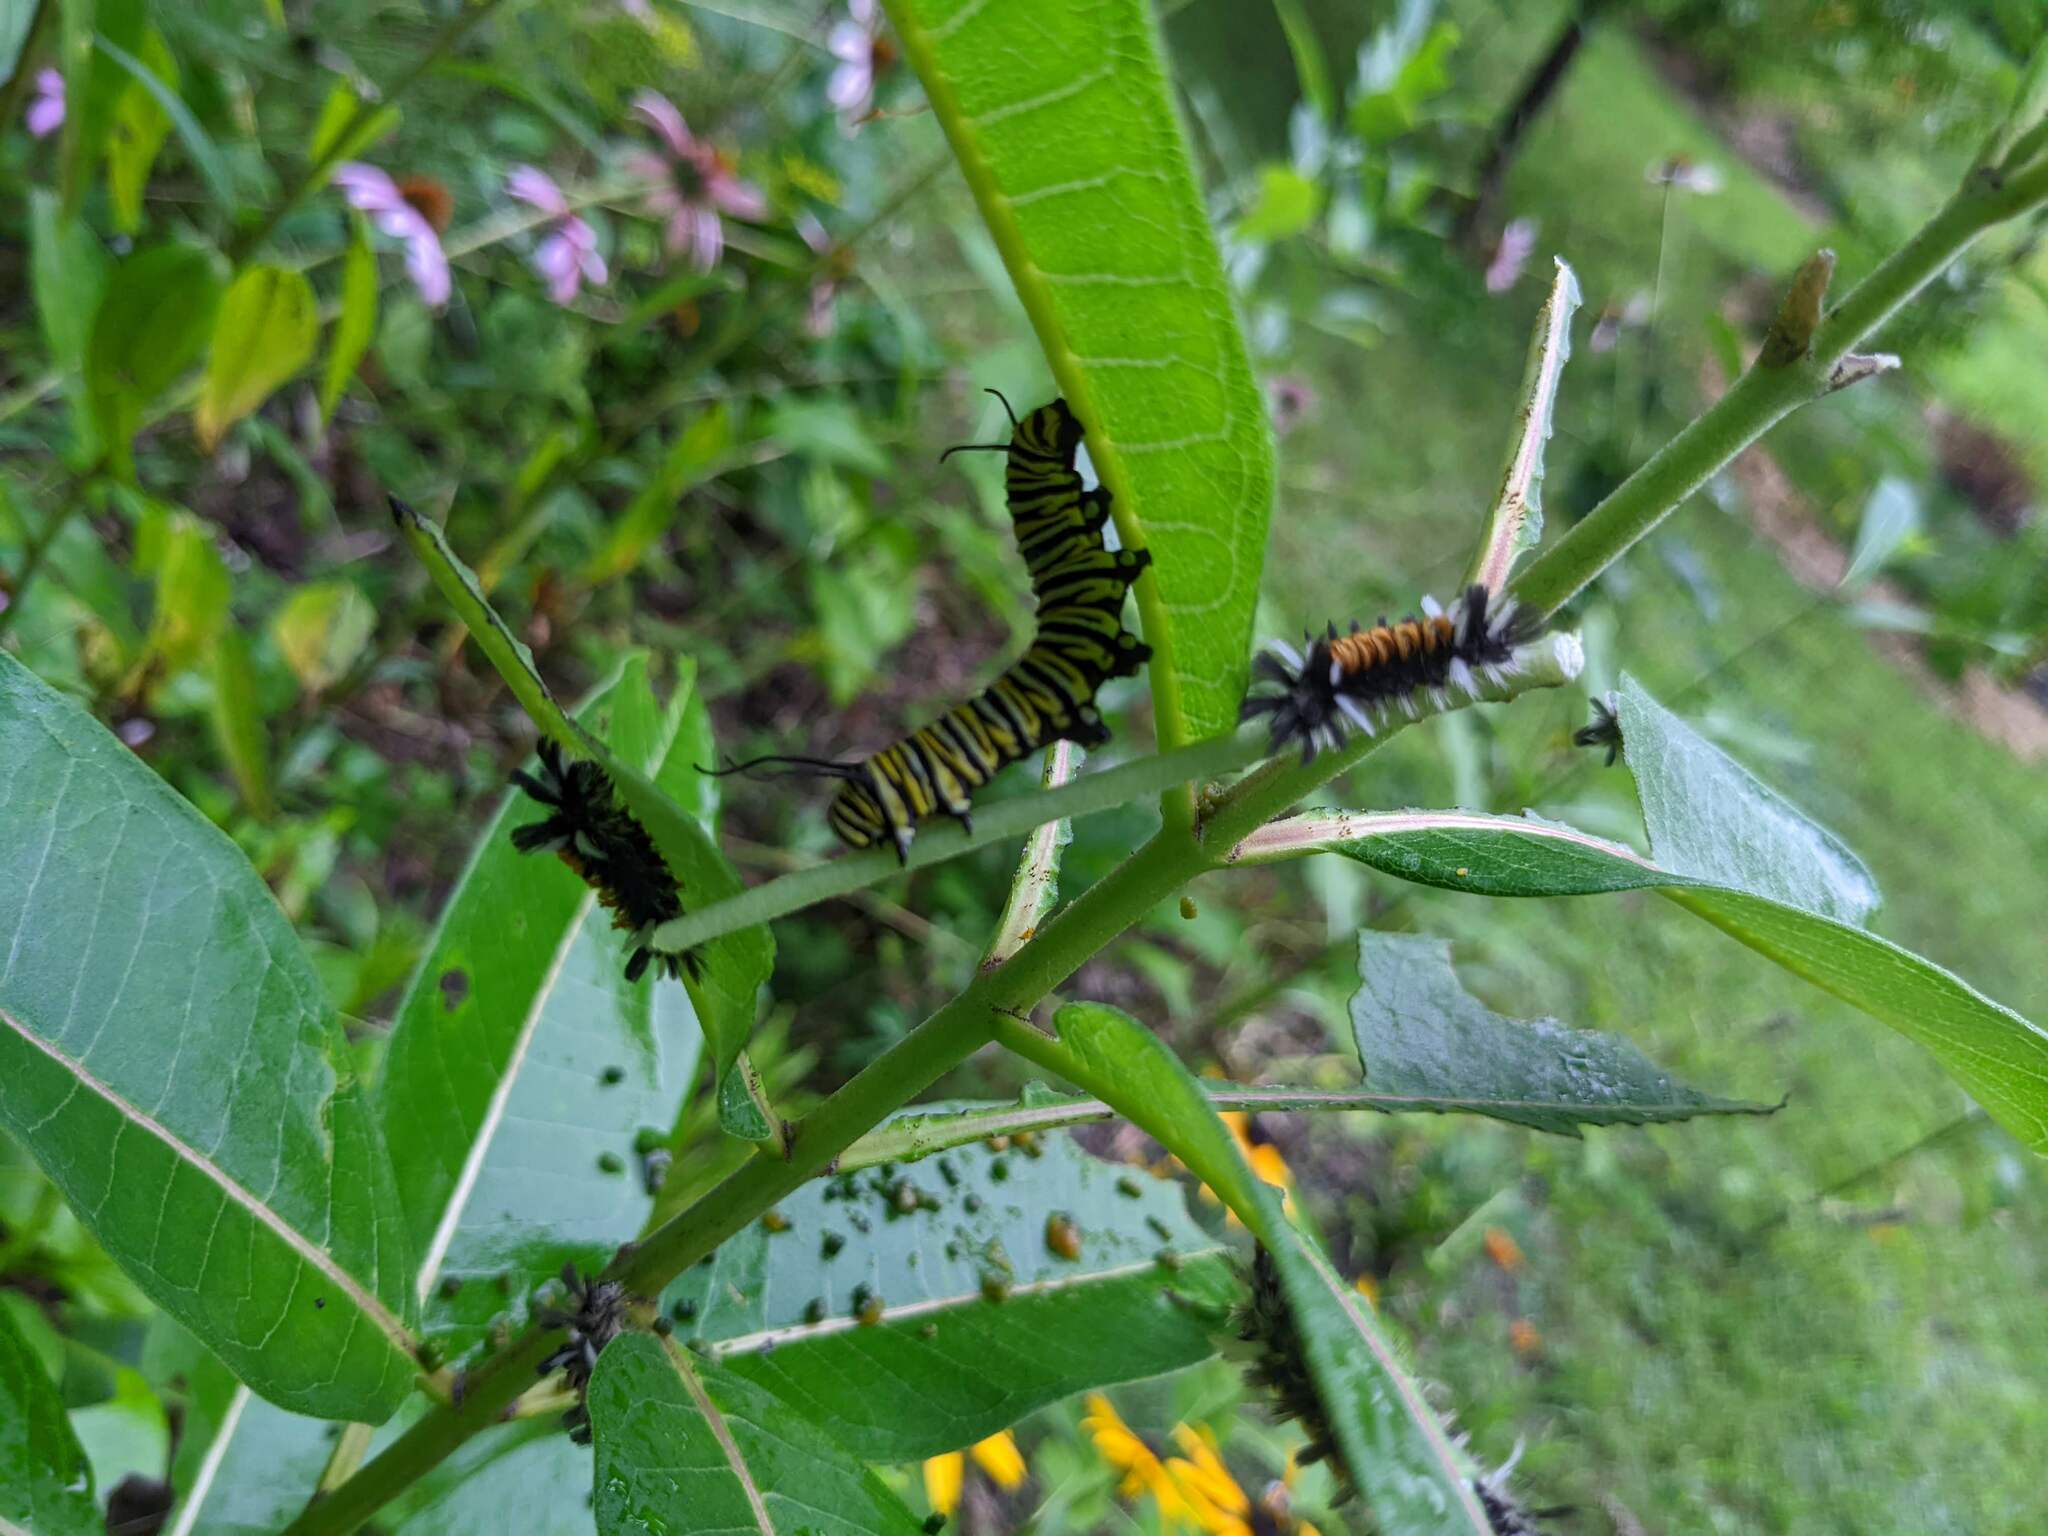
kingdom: Animalia
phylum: Arthropoda
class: Insecta
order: Lepidoptera
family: Nymphalidae
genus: Danaus
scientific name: Danaus plexippus
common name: Monarch
